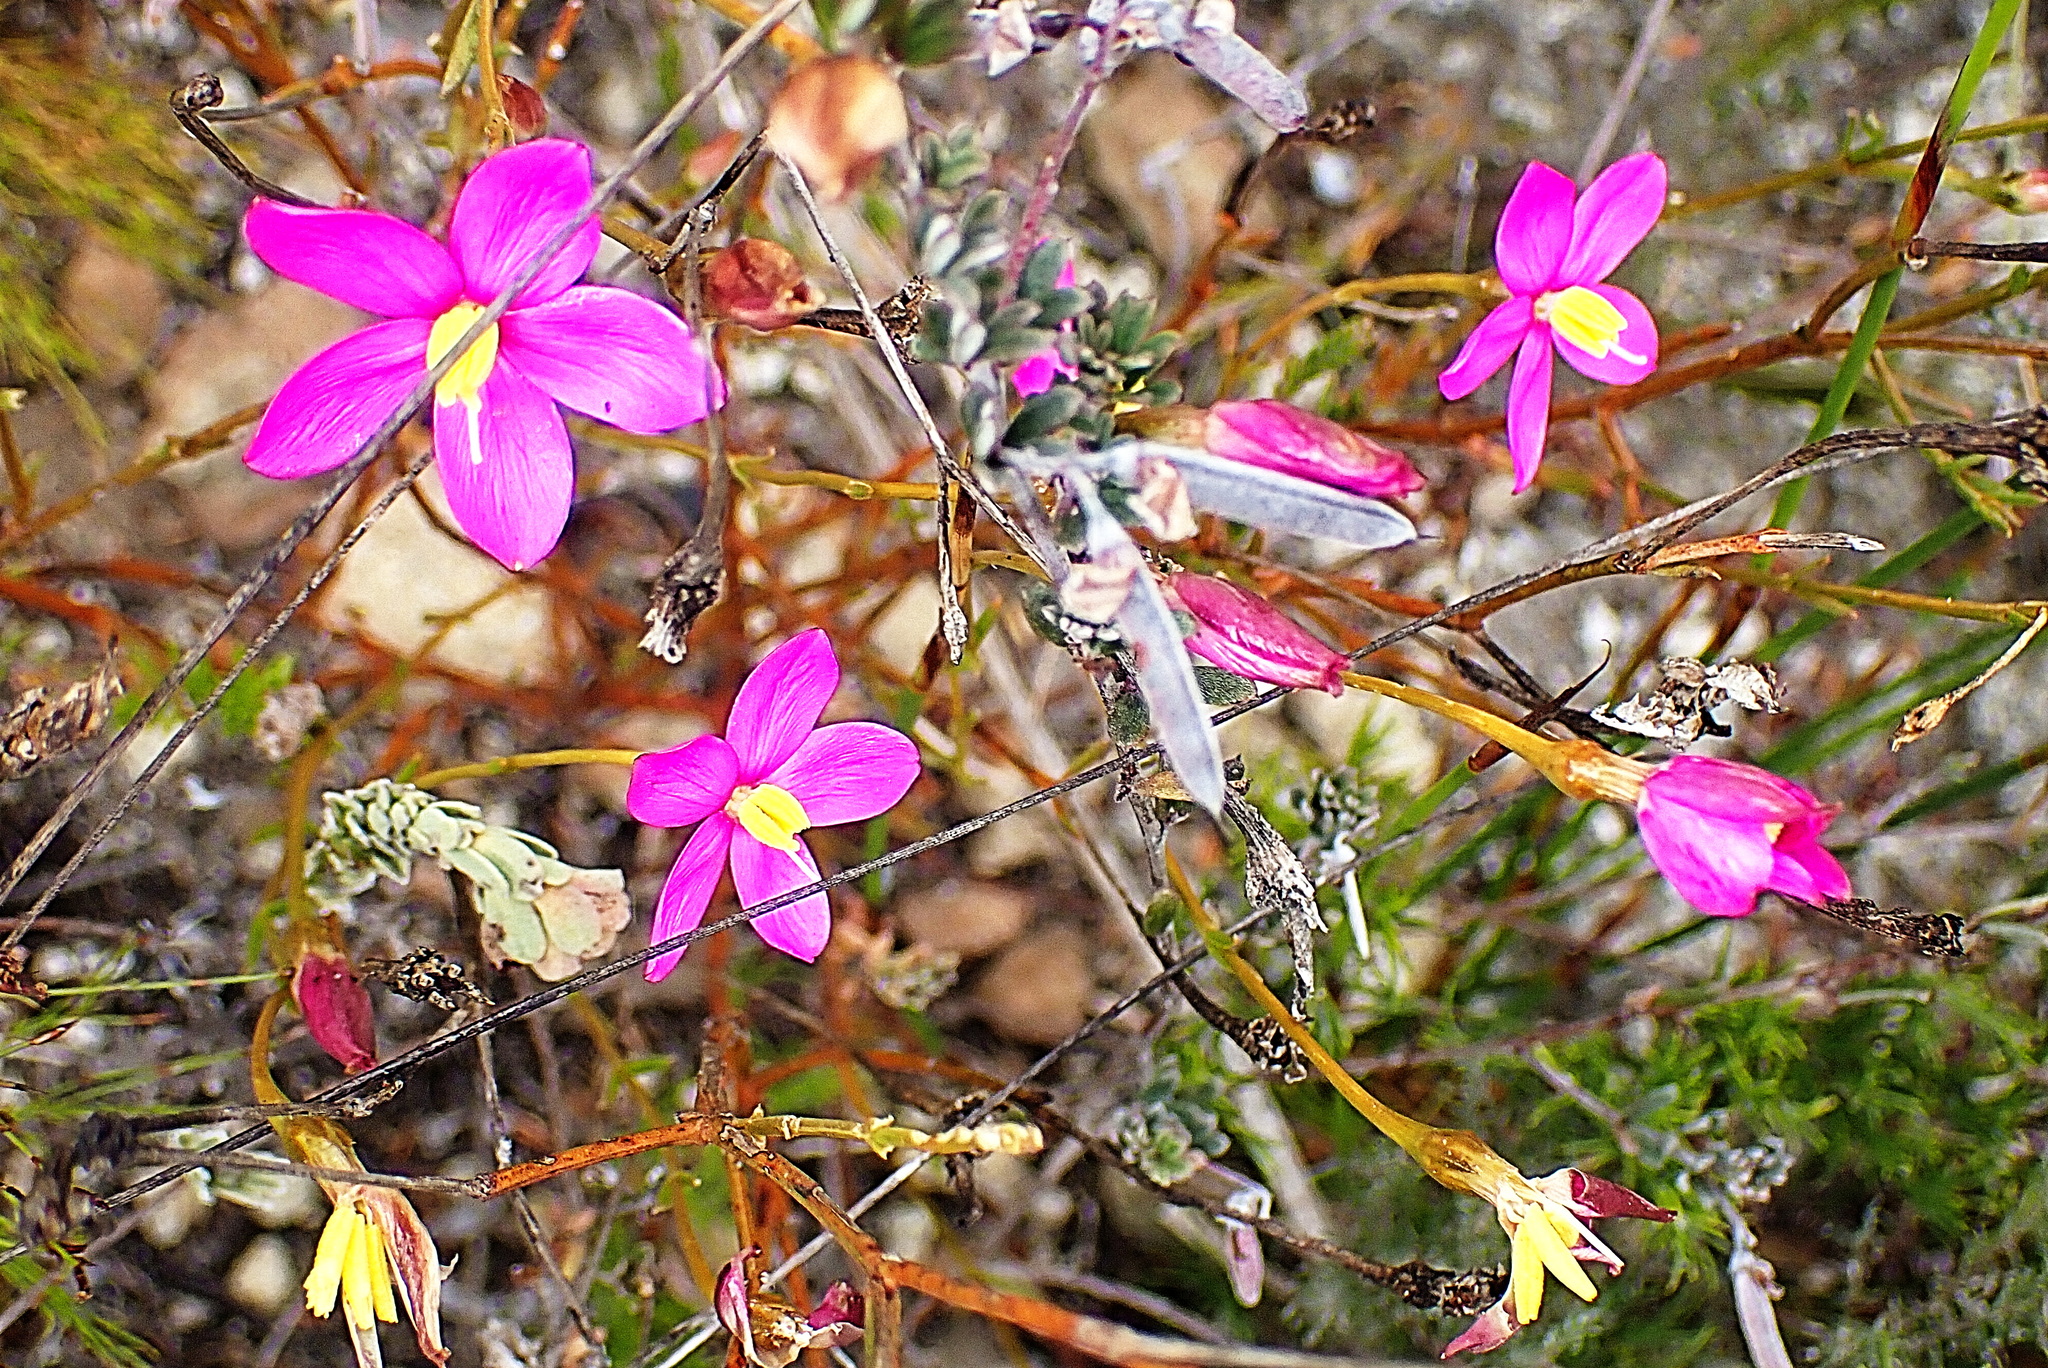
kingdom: Plantae
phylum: Tracheophyta
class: Magnoliopsida
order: Gentianales
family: Gentianaceae
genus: Chironia
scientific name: Chironia tetragona
